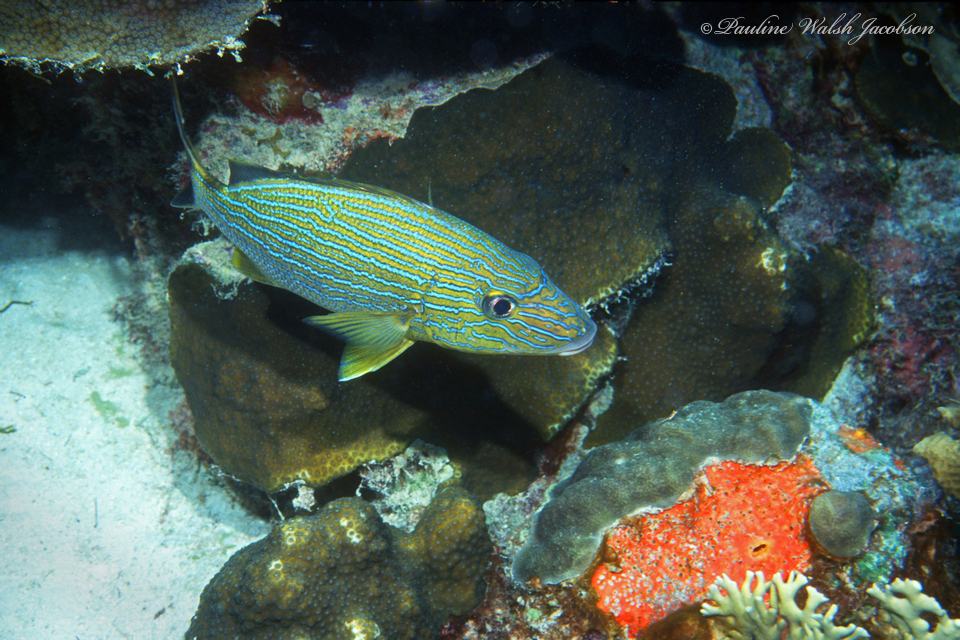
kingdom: Animalia
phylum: Chordata
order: Perciformes
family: Haemulidae
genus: Haemulon
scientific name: Haemulon sciurus
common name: Bluestriped grunt
